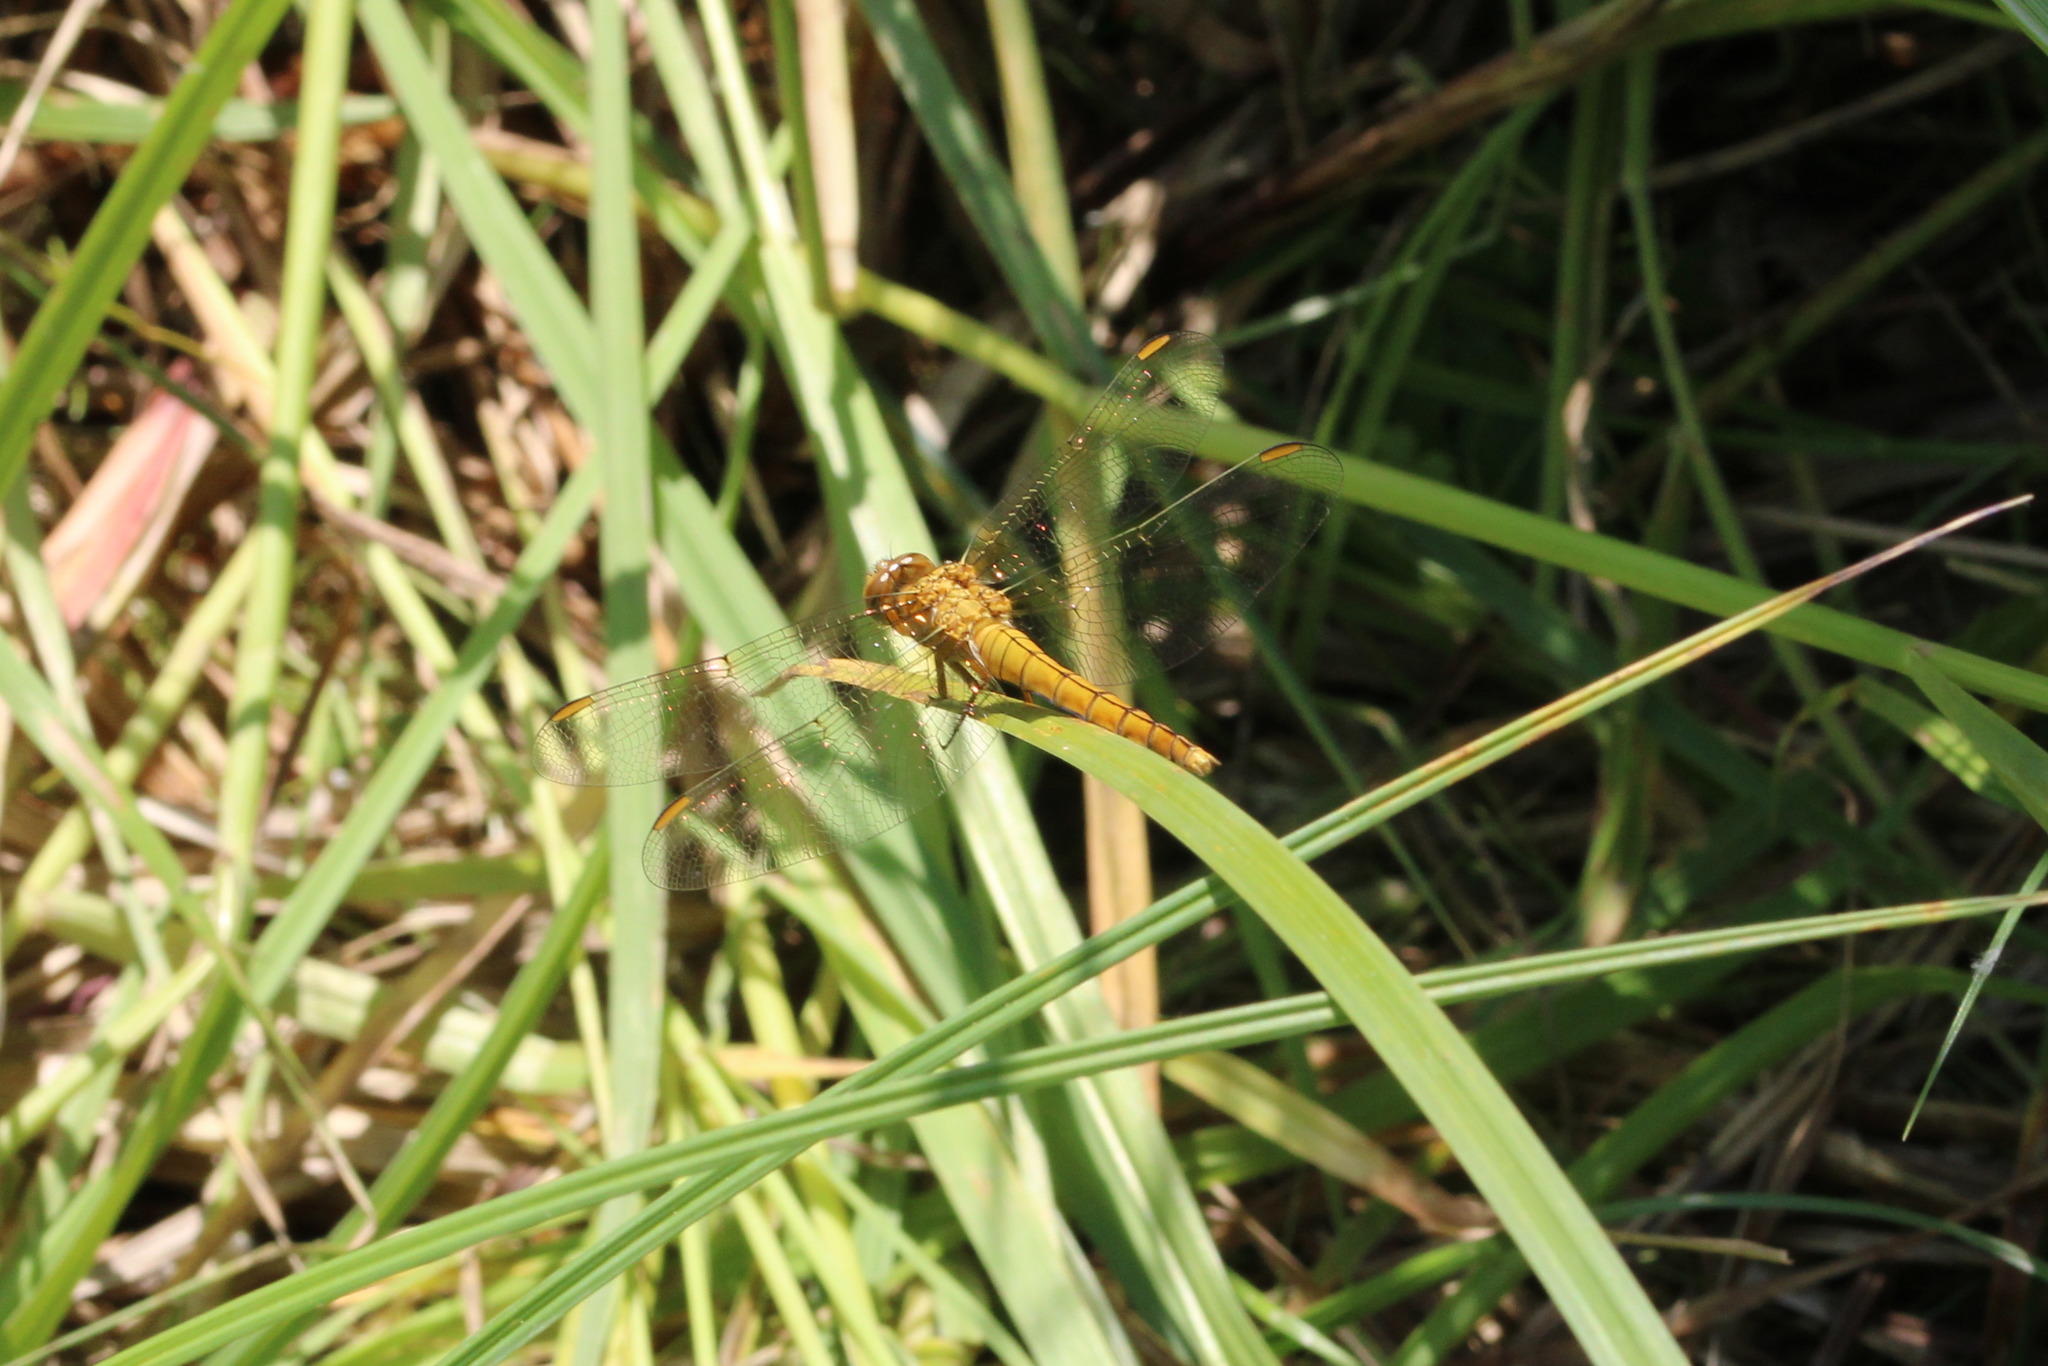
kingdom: Animalia
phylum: Arthropoda
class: Insecta
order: Odonata
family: Libellulidae
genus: Orthetrum
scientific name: Orthetrum coerulescens
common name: Keeled skimmer
